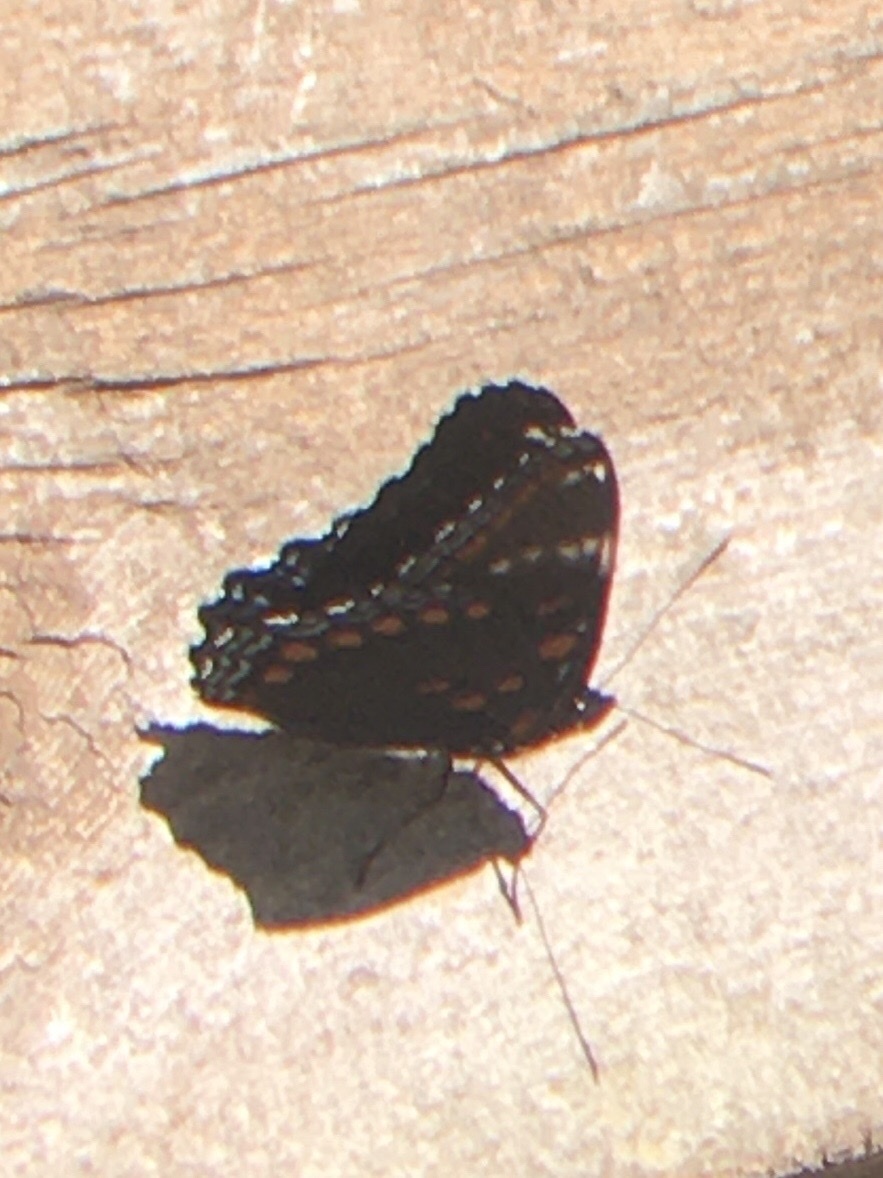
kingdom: Animalia
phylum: Arthropoda
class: Insecta
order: Lepidoptera
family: Nymphalidae
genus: Limenitis
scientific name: Limenitis
